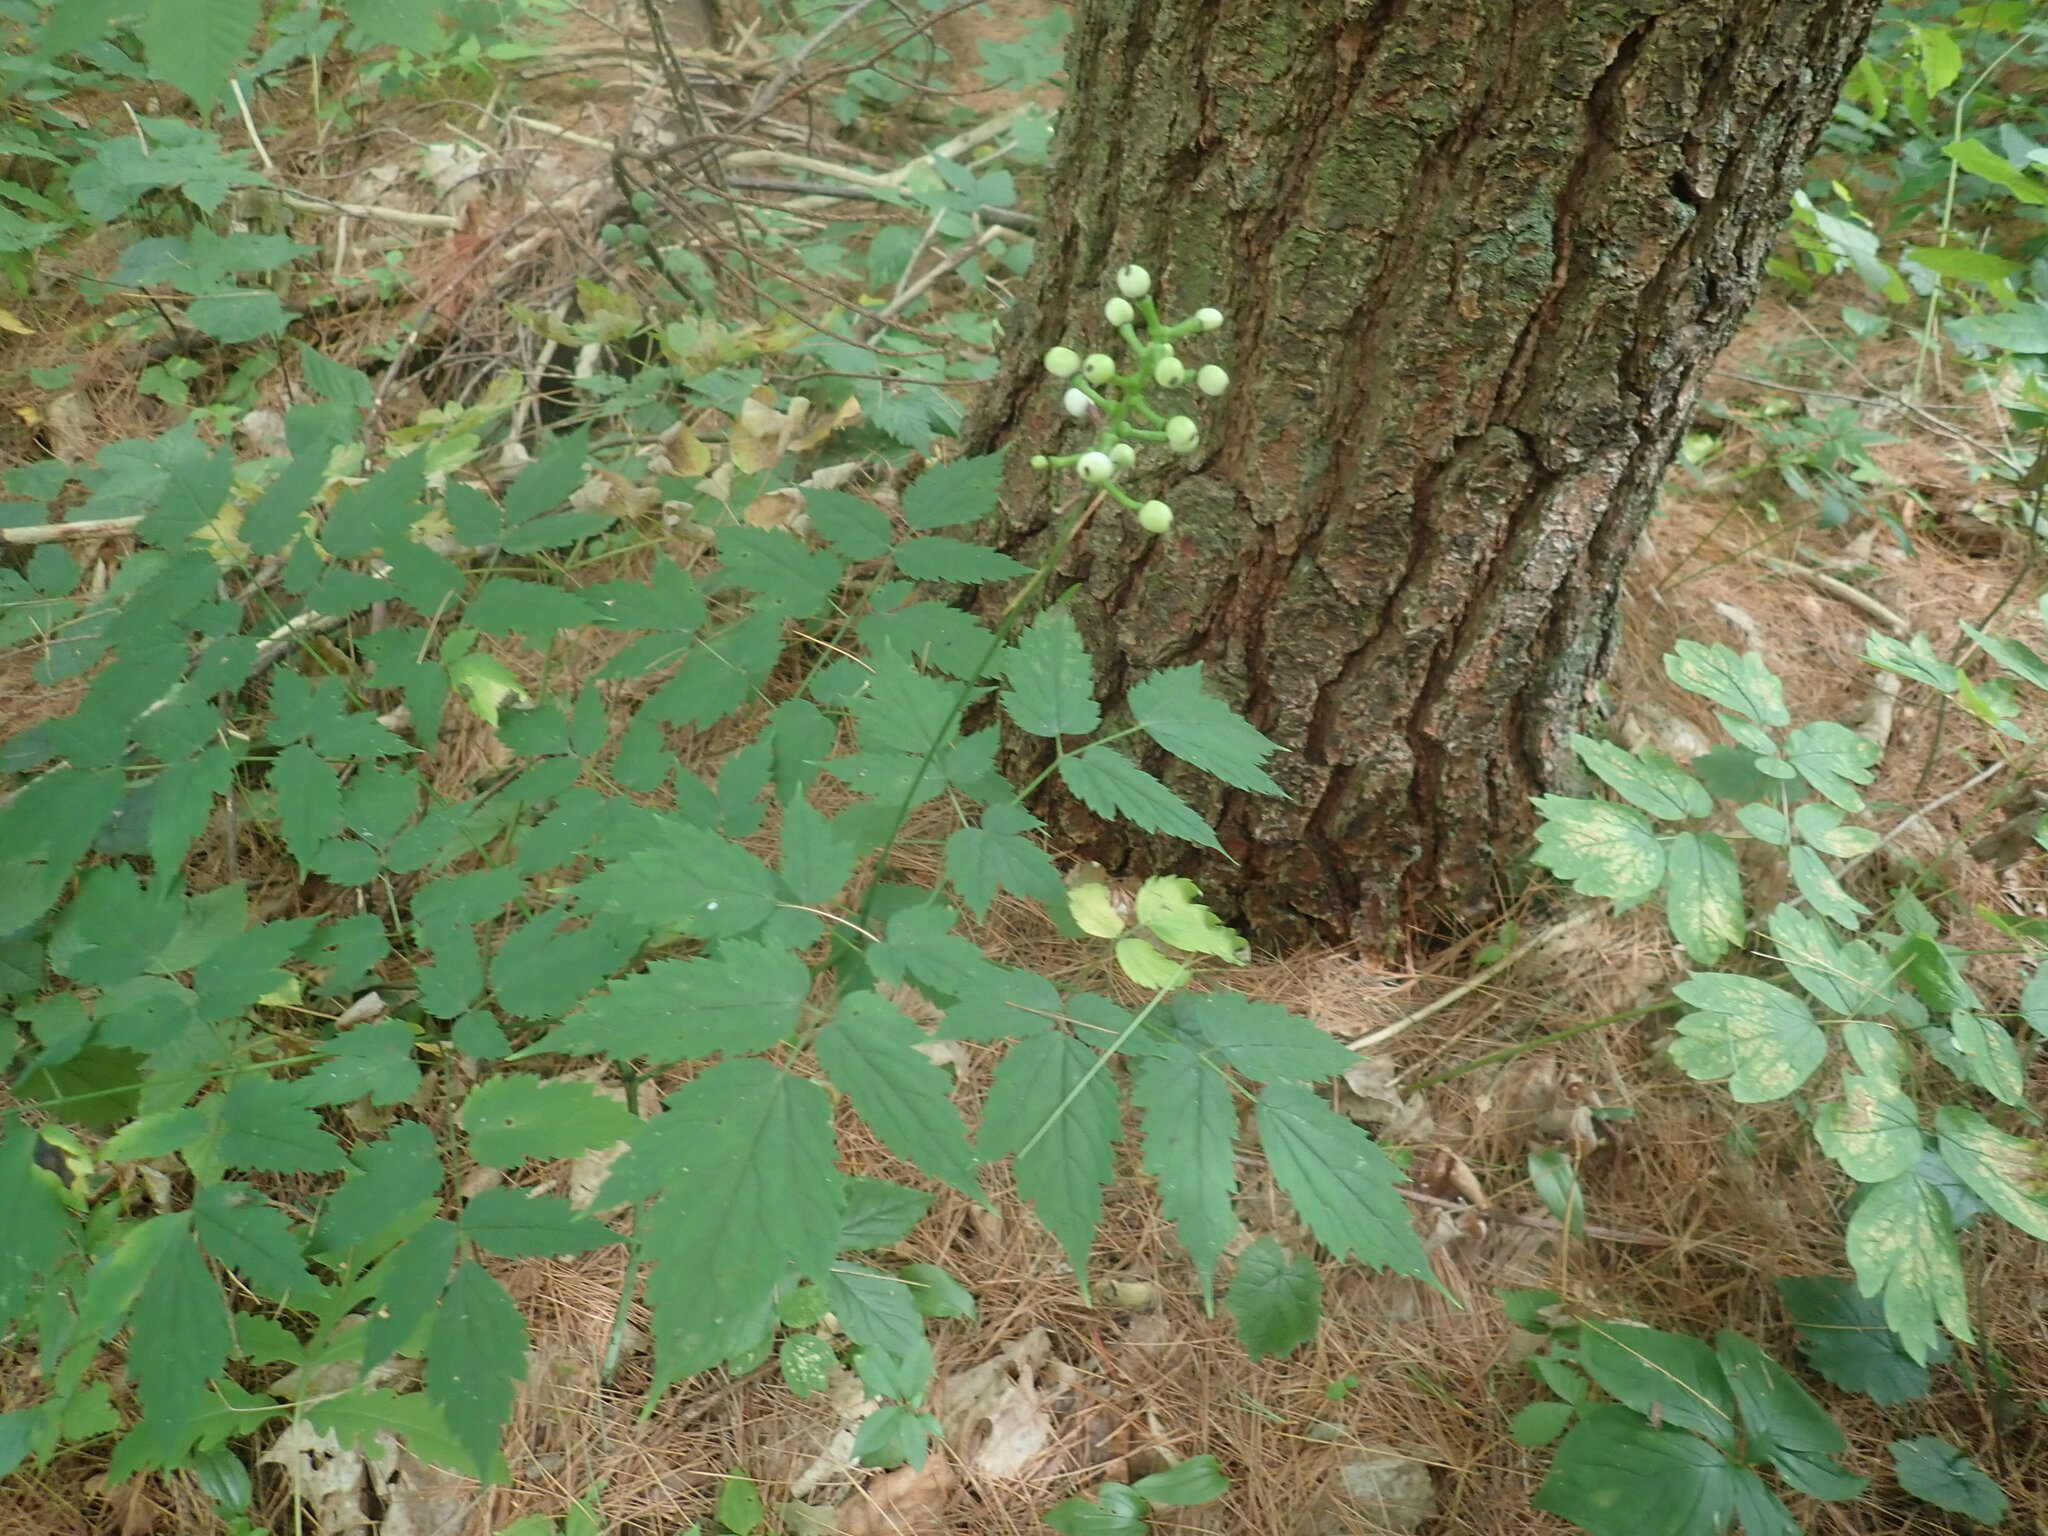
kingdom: Plantae
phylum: Tracheophyta
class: Magnoliopsida
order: Ranunculales
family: Ranunculaceae
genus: Actaea
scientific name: Actaea pachypoda
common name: Doll's-eyes
